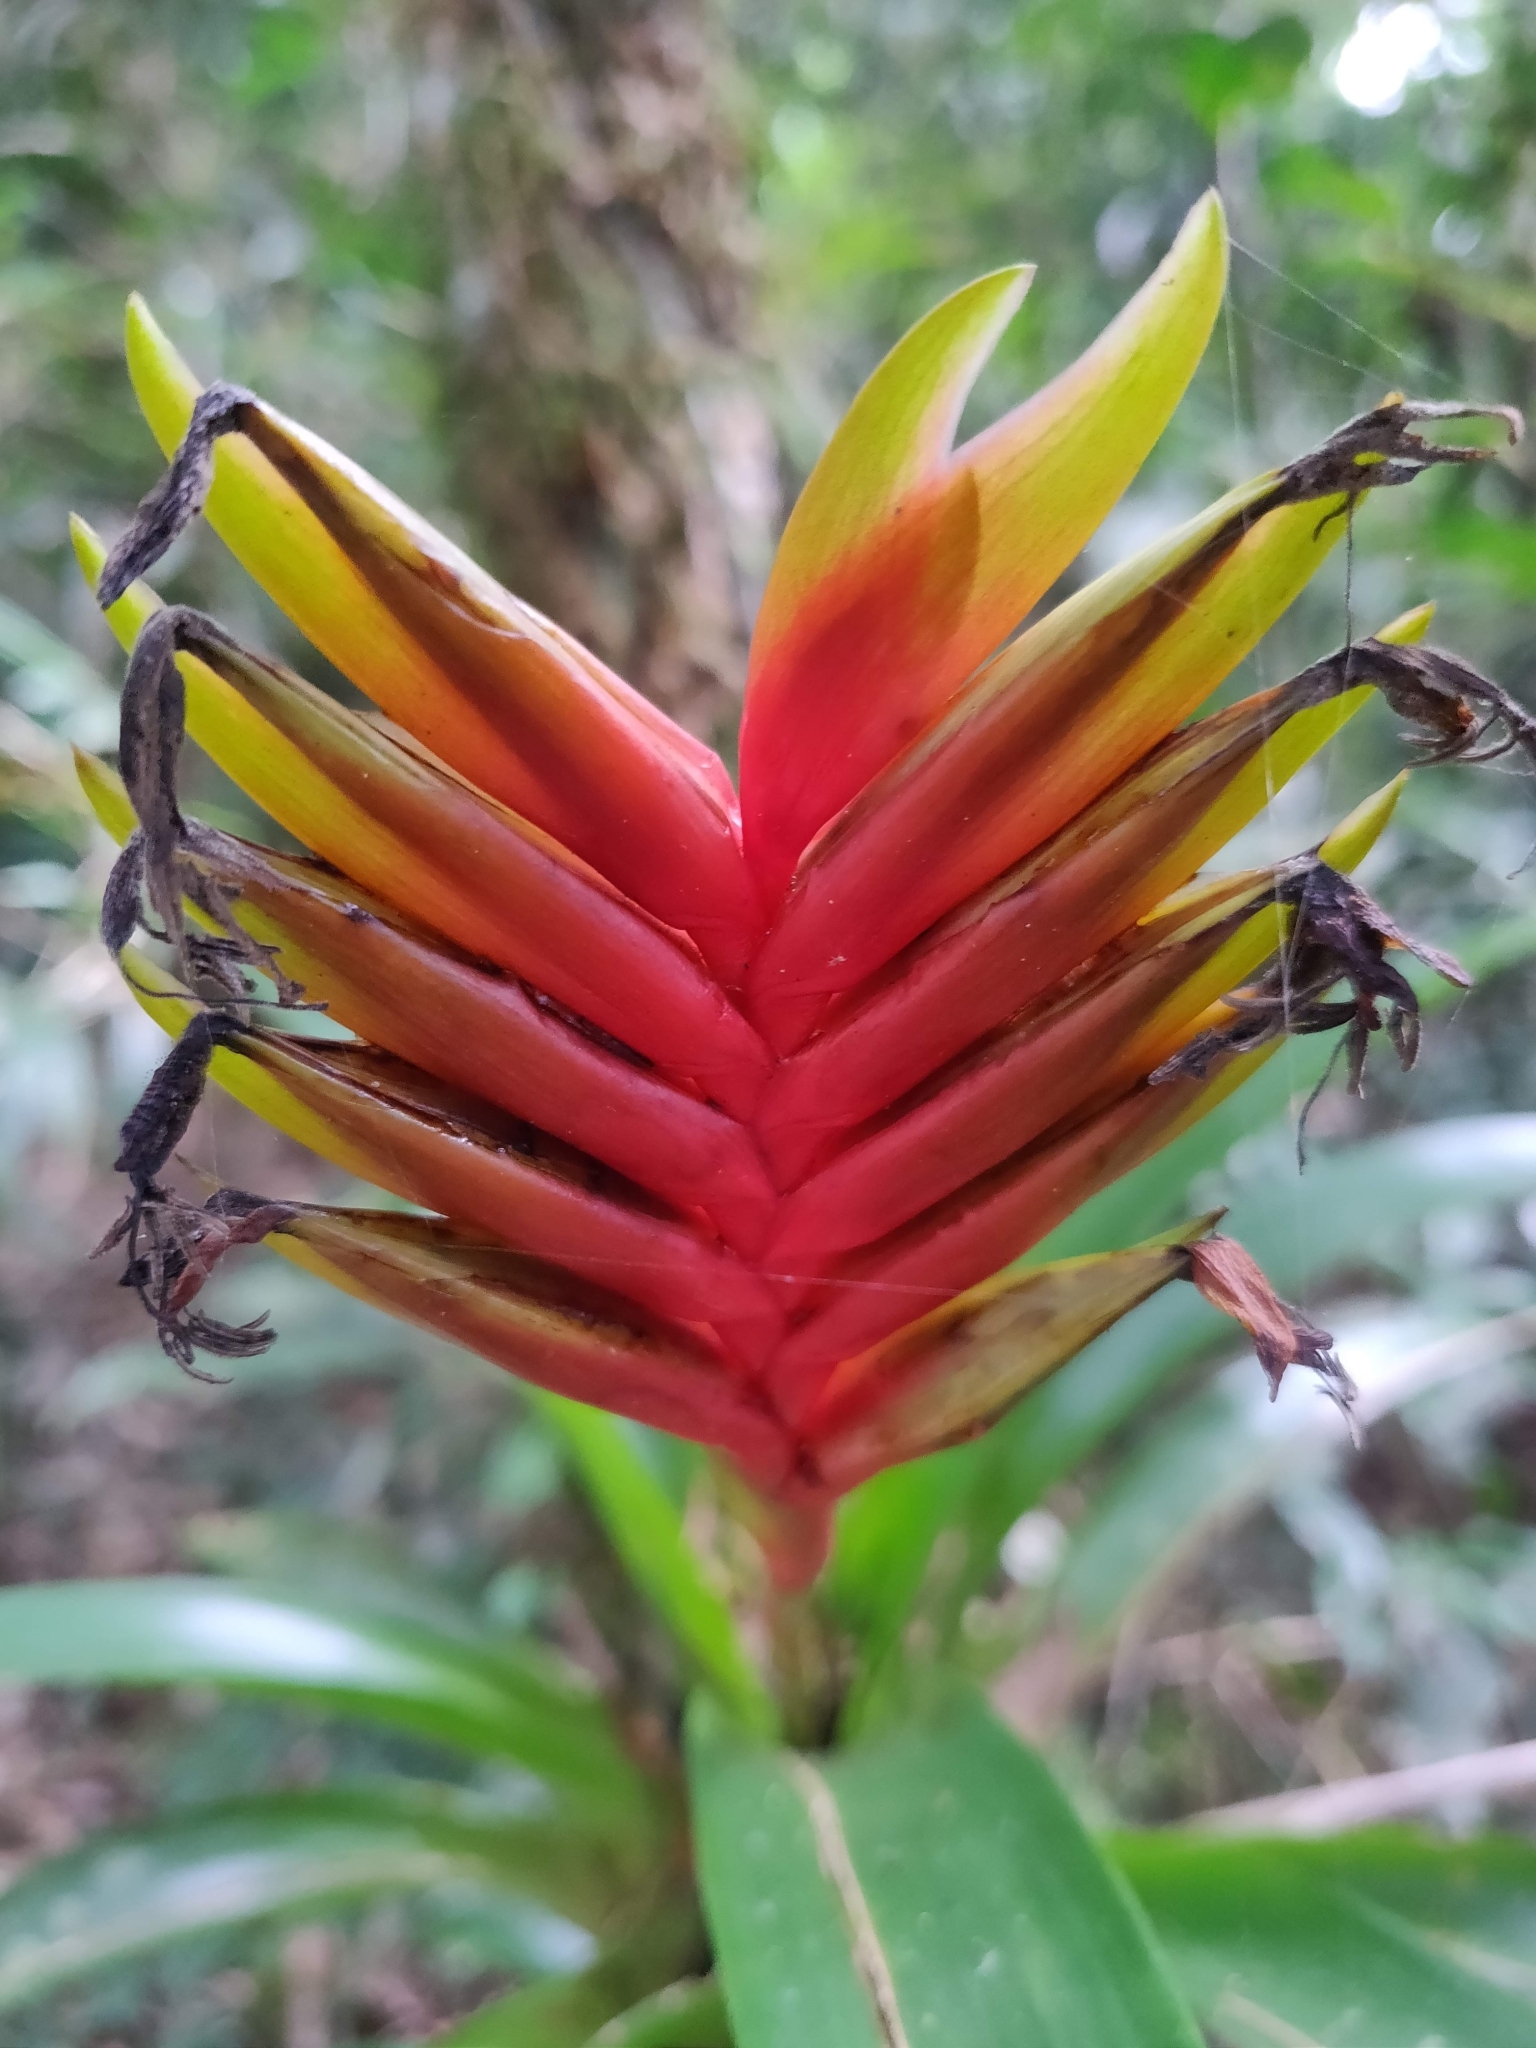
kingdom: Plantae
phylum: Tracheophyta
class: Liliopsida
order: Poales
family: Bromeliaceae
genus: Vriesea
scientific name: Vriesea carinata
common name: Lobster-claws
